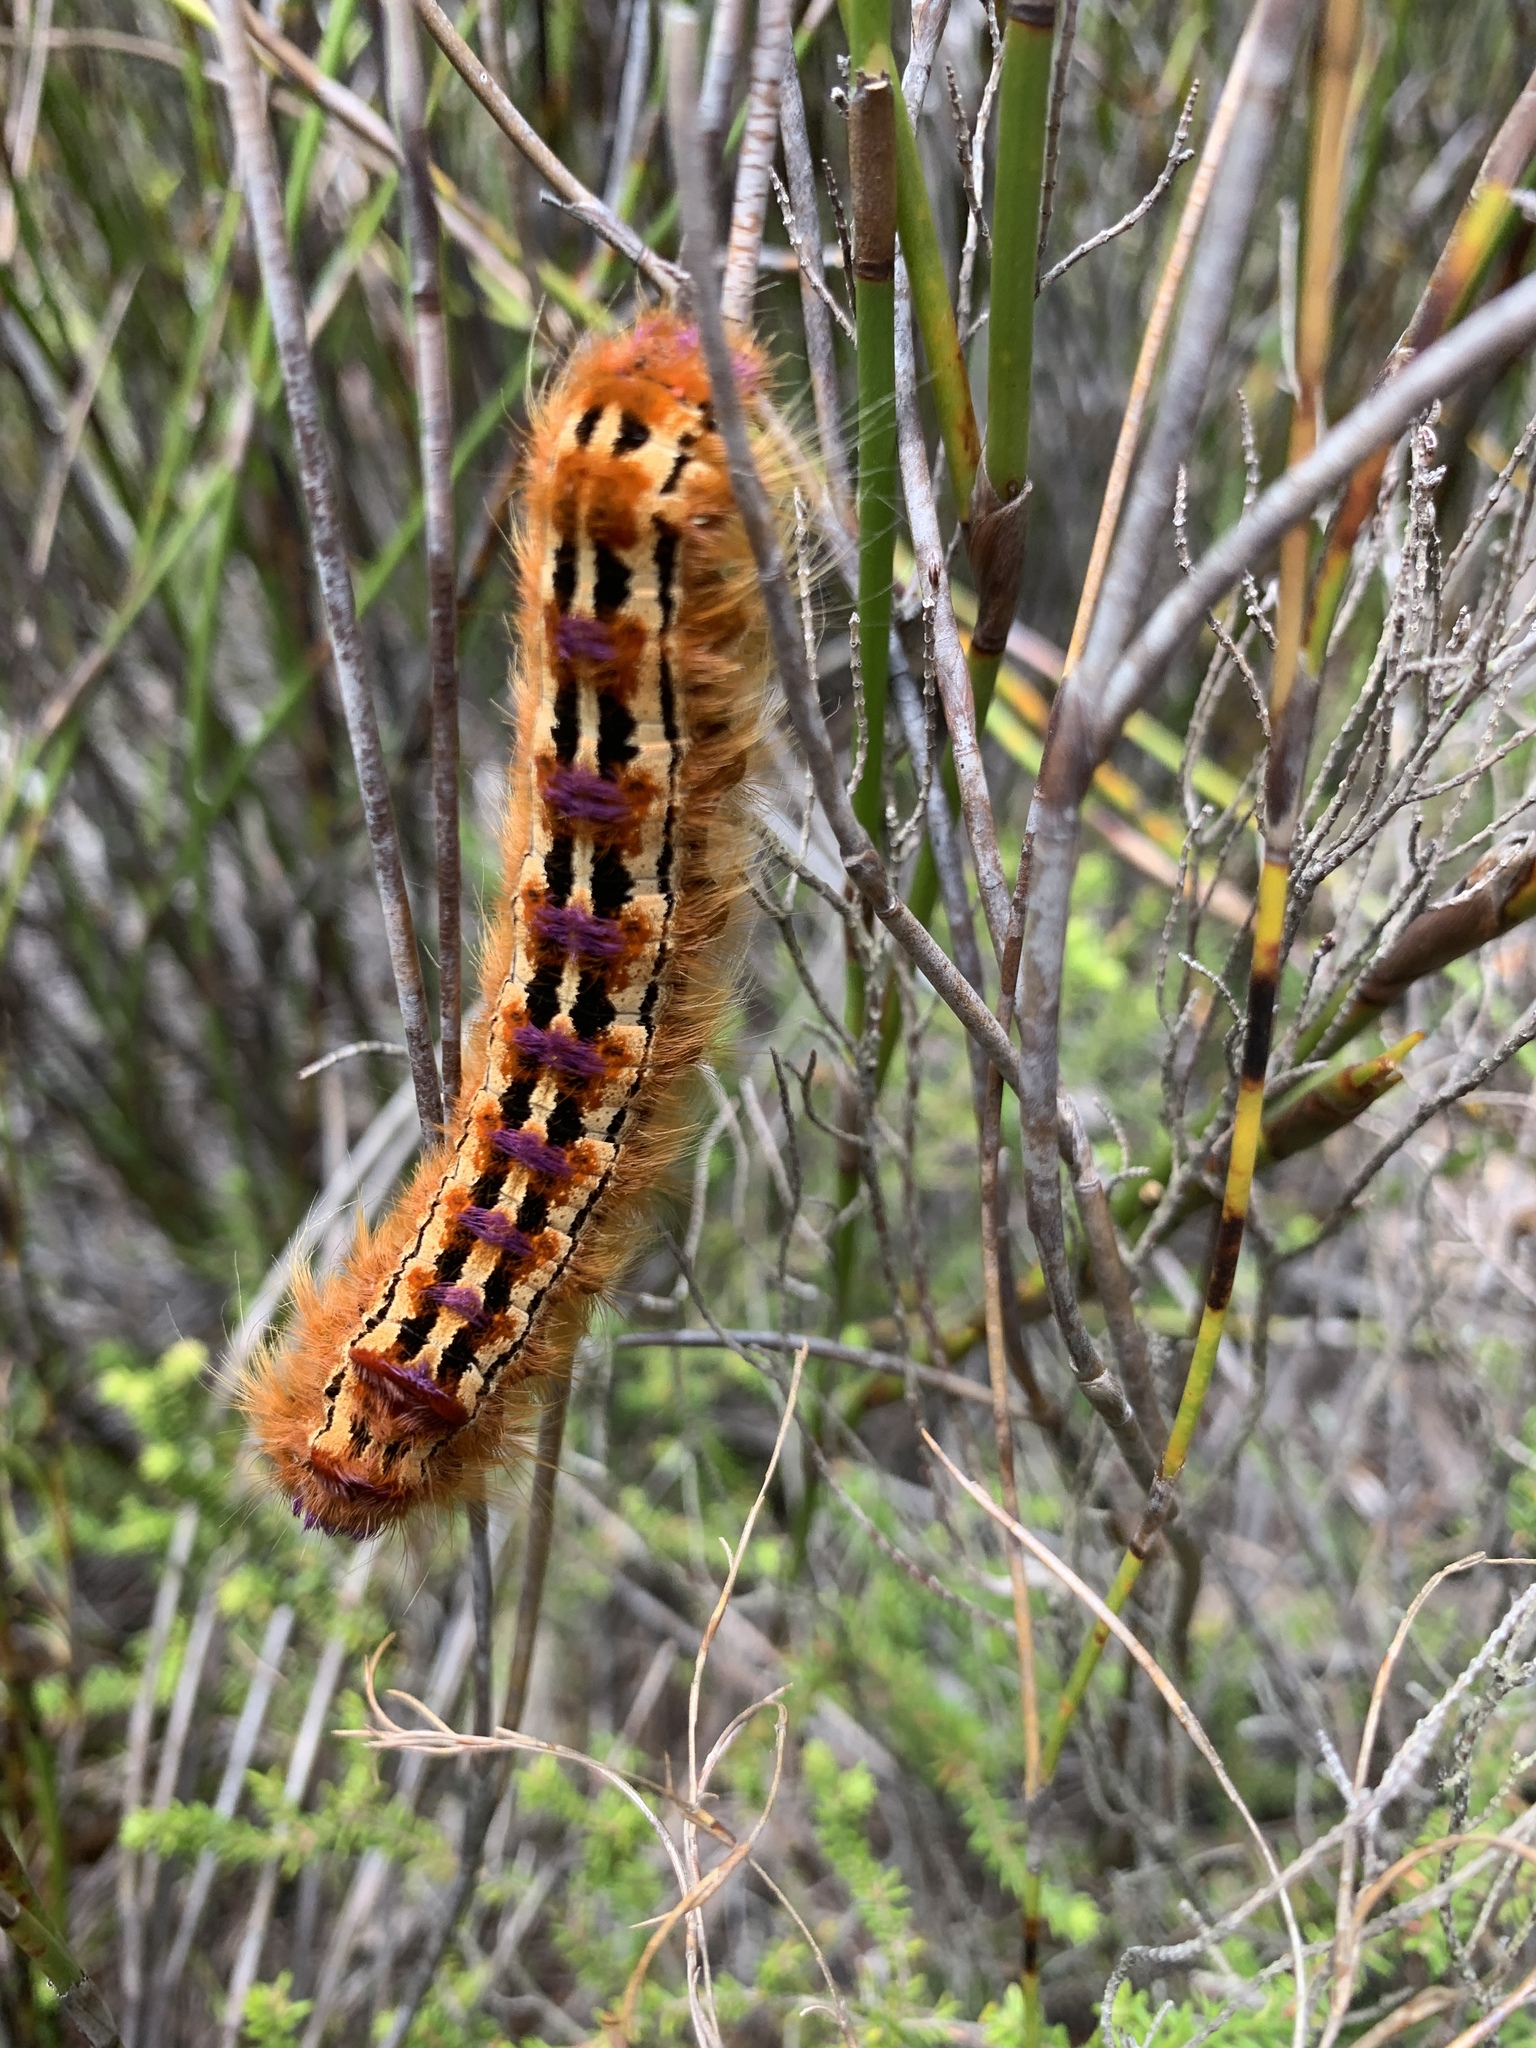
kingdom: Animalia
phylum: Arthropoda
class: Insecta
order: Lepidoptera
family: Lasiocampidae
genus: Eutricha
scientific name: Eutricha bifascia
